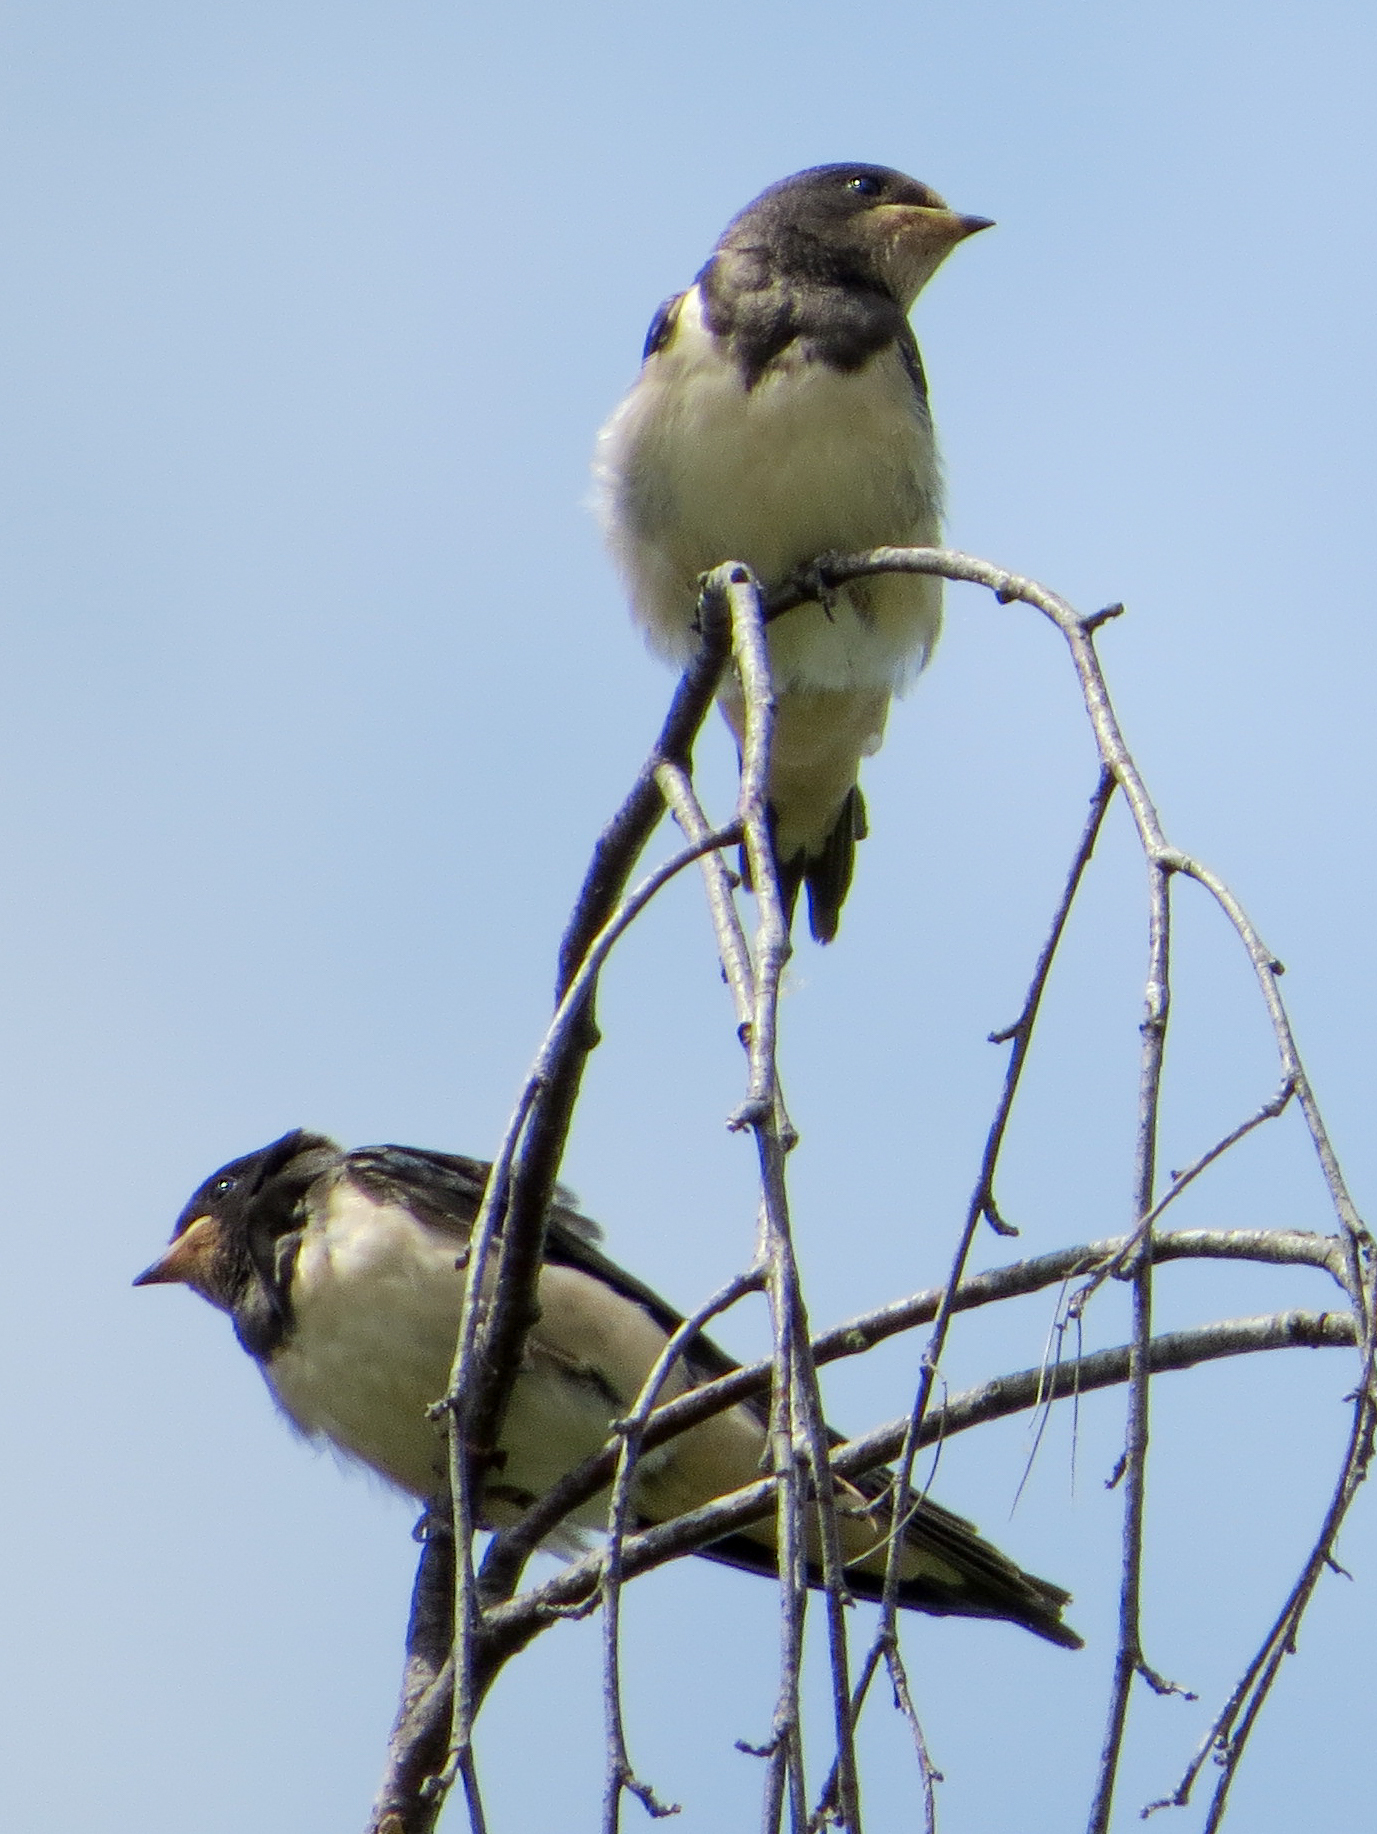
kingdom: Animalia
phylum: Chordata
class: Aves
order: Passeriformes
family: Hirundinidae
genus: Hirundo
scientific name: Hirundo rustica
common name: Barn swallow
